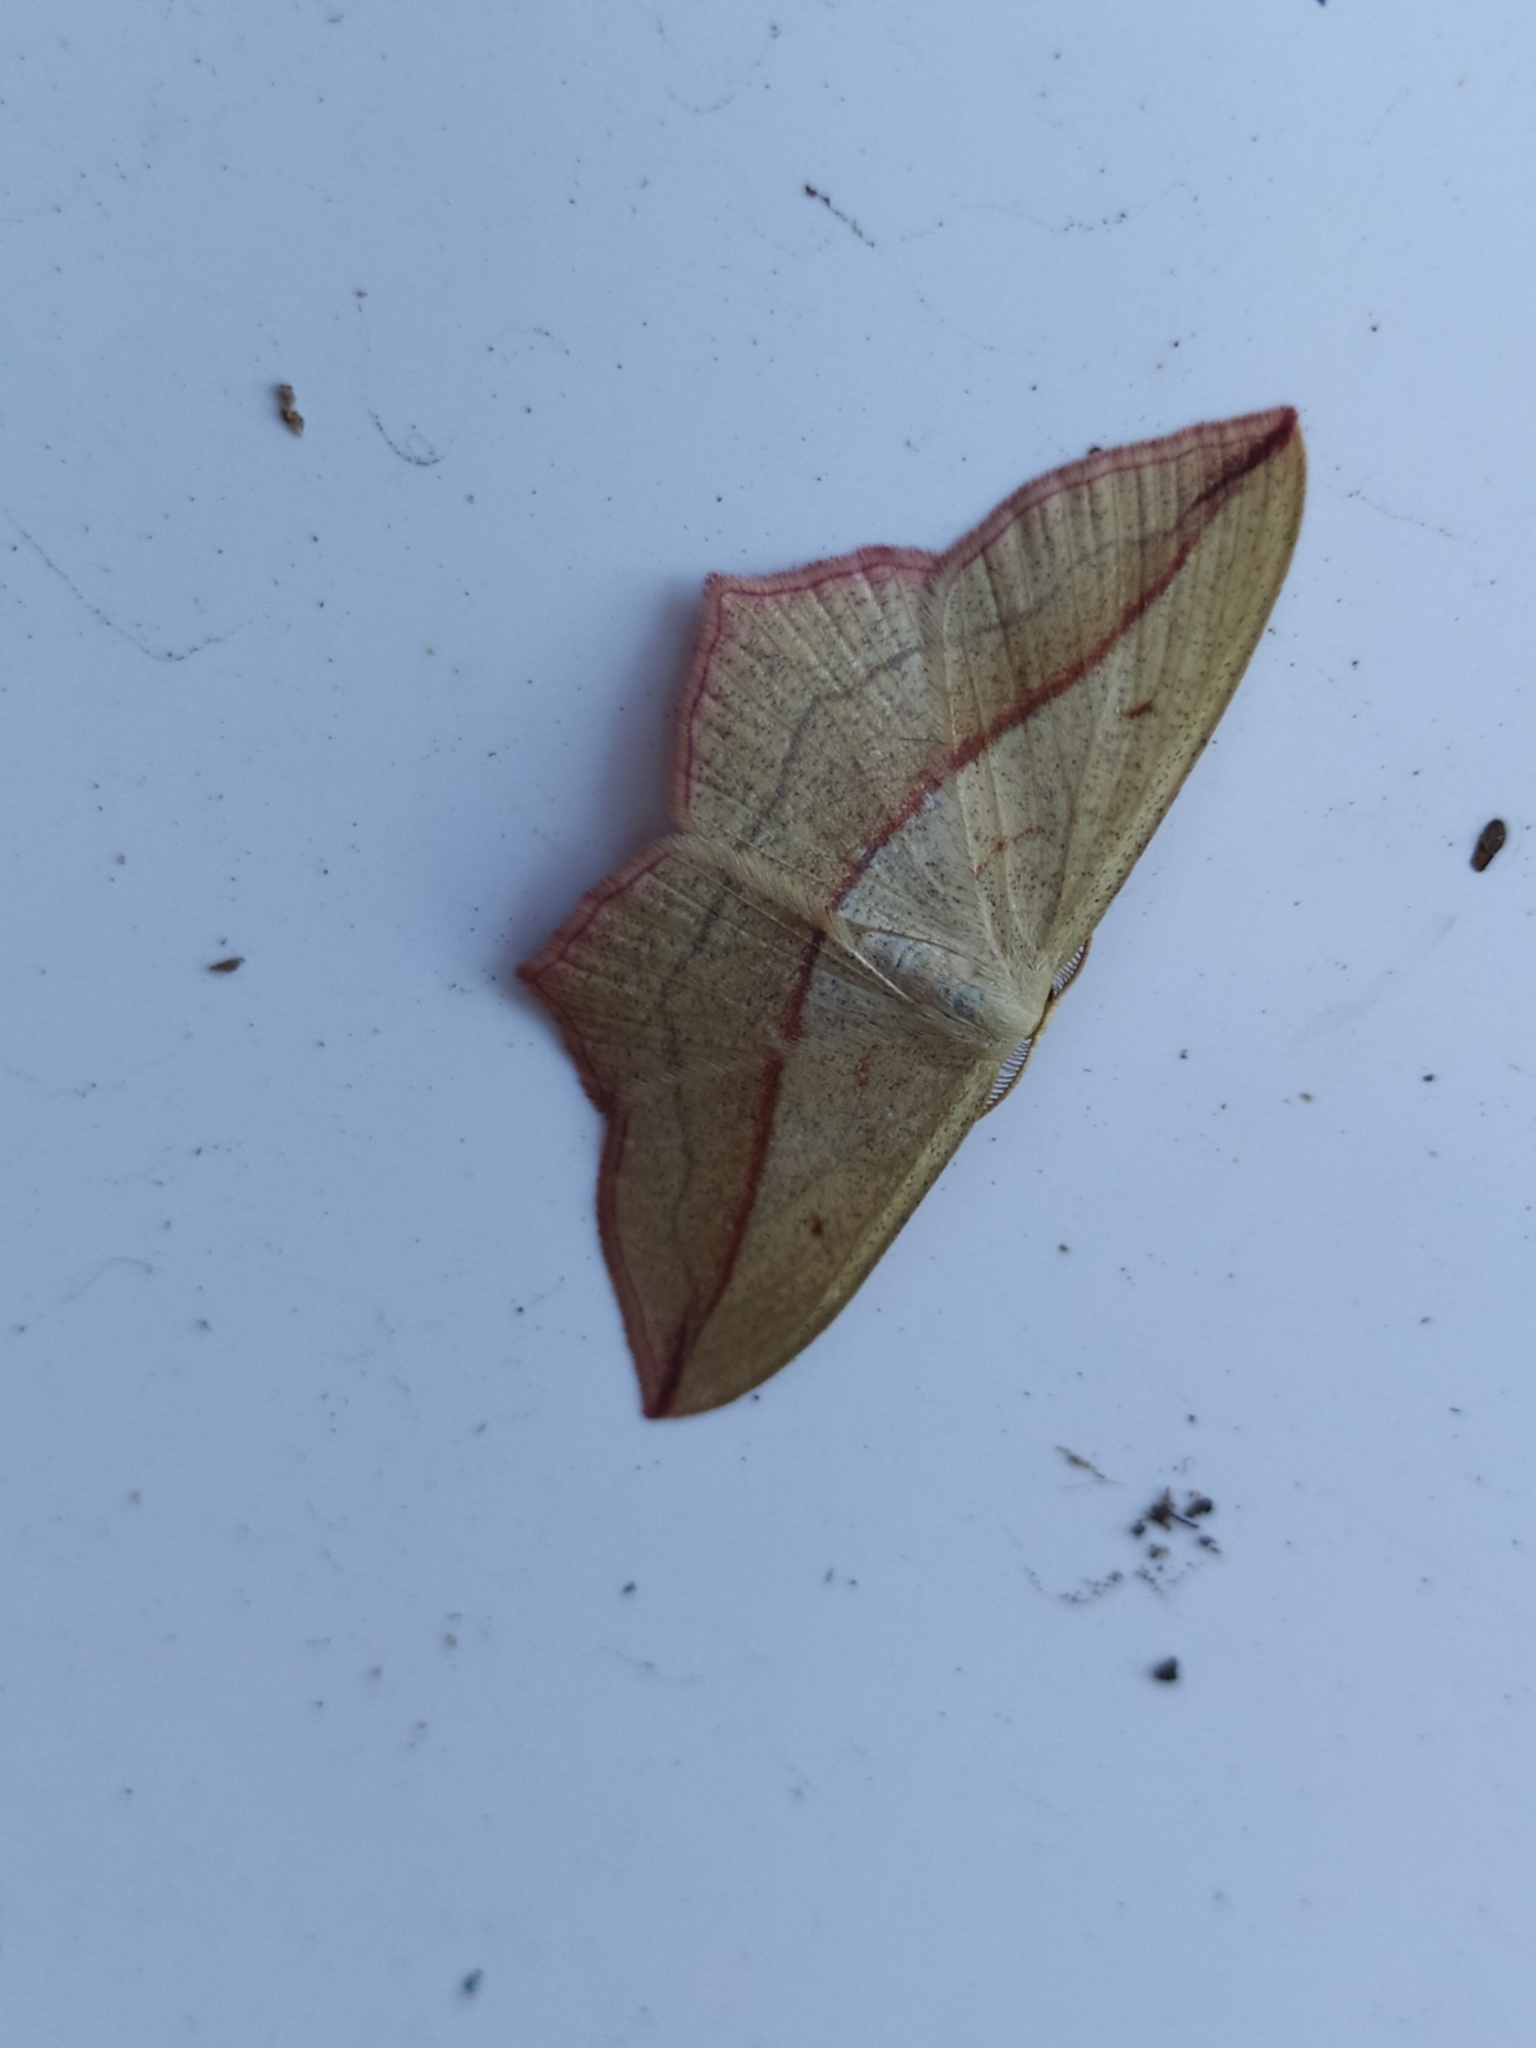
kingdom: Animalia
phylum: Arthropoda
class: Insecta
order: Lepidoptera
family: Geometridae
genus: Timandra
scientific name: Timandra comae
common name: Blood-vein
